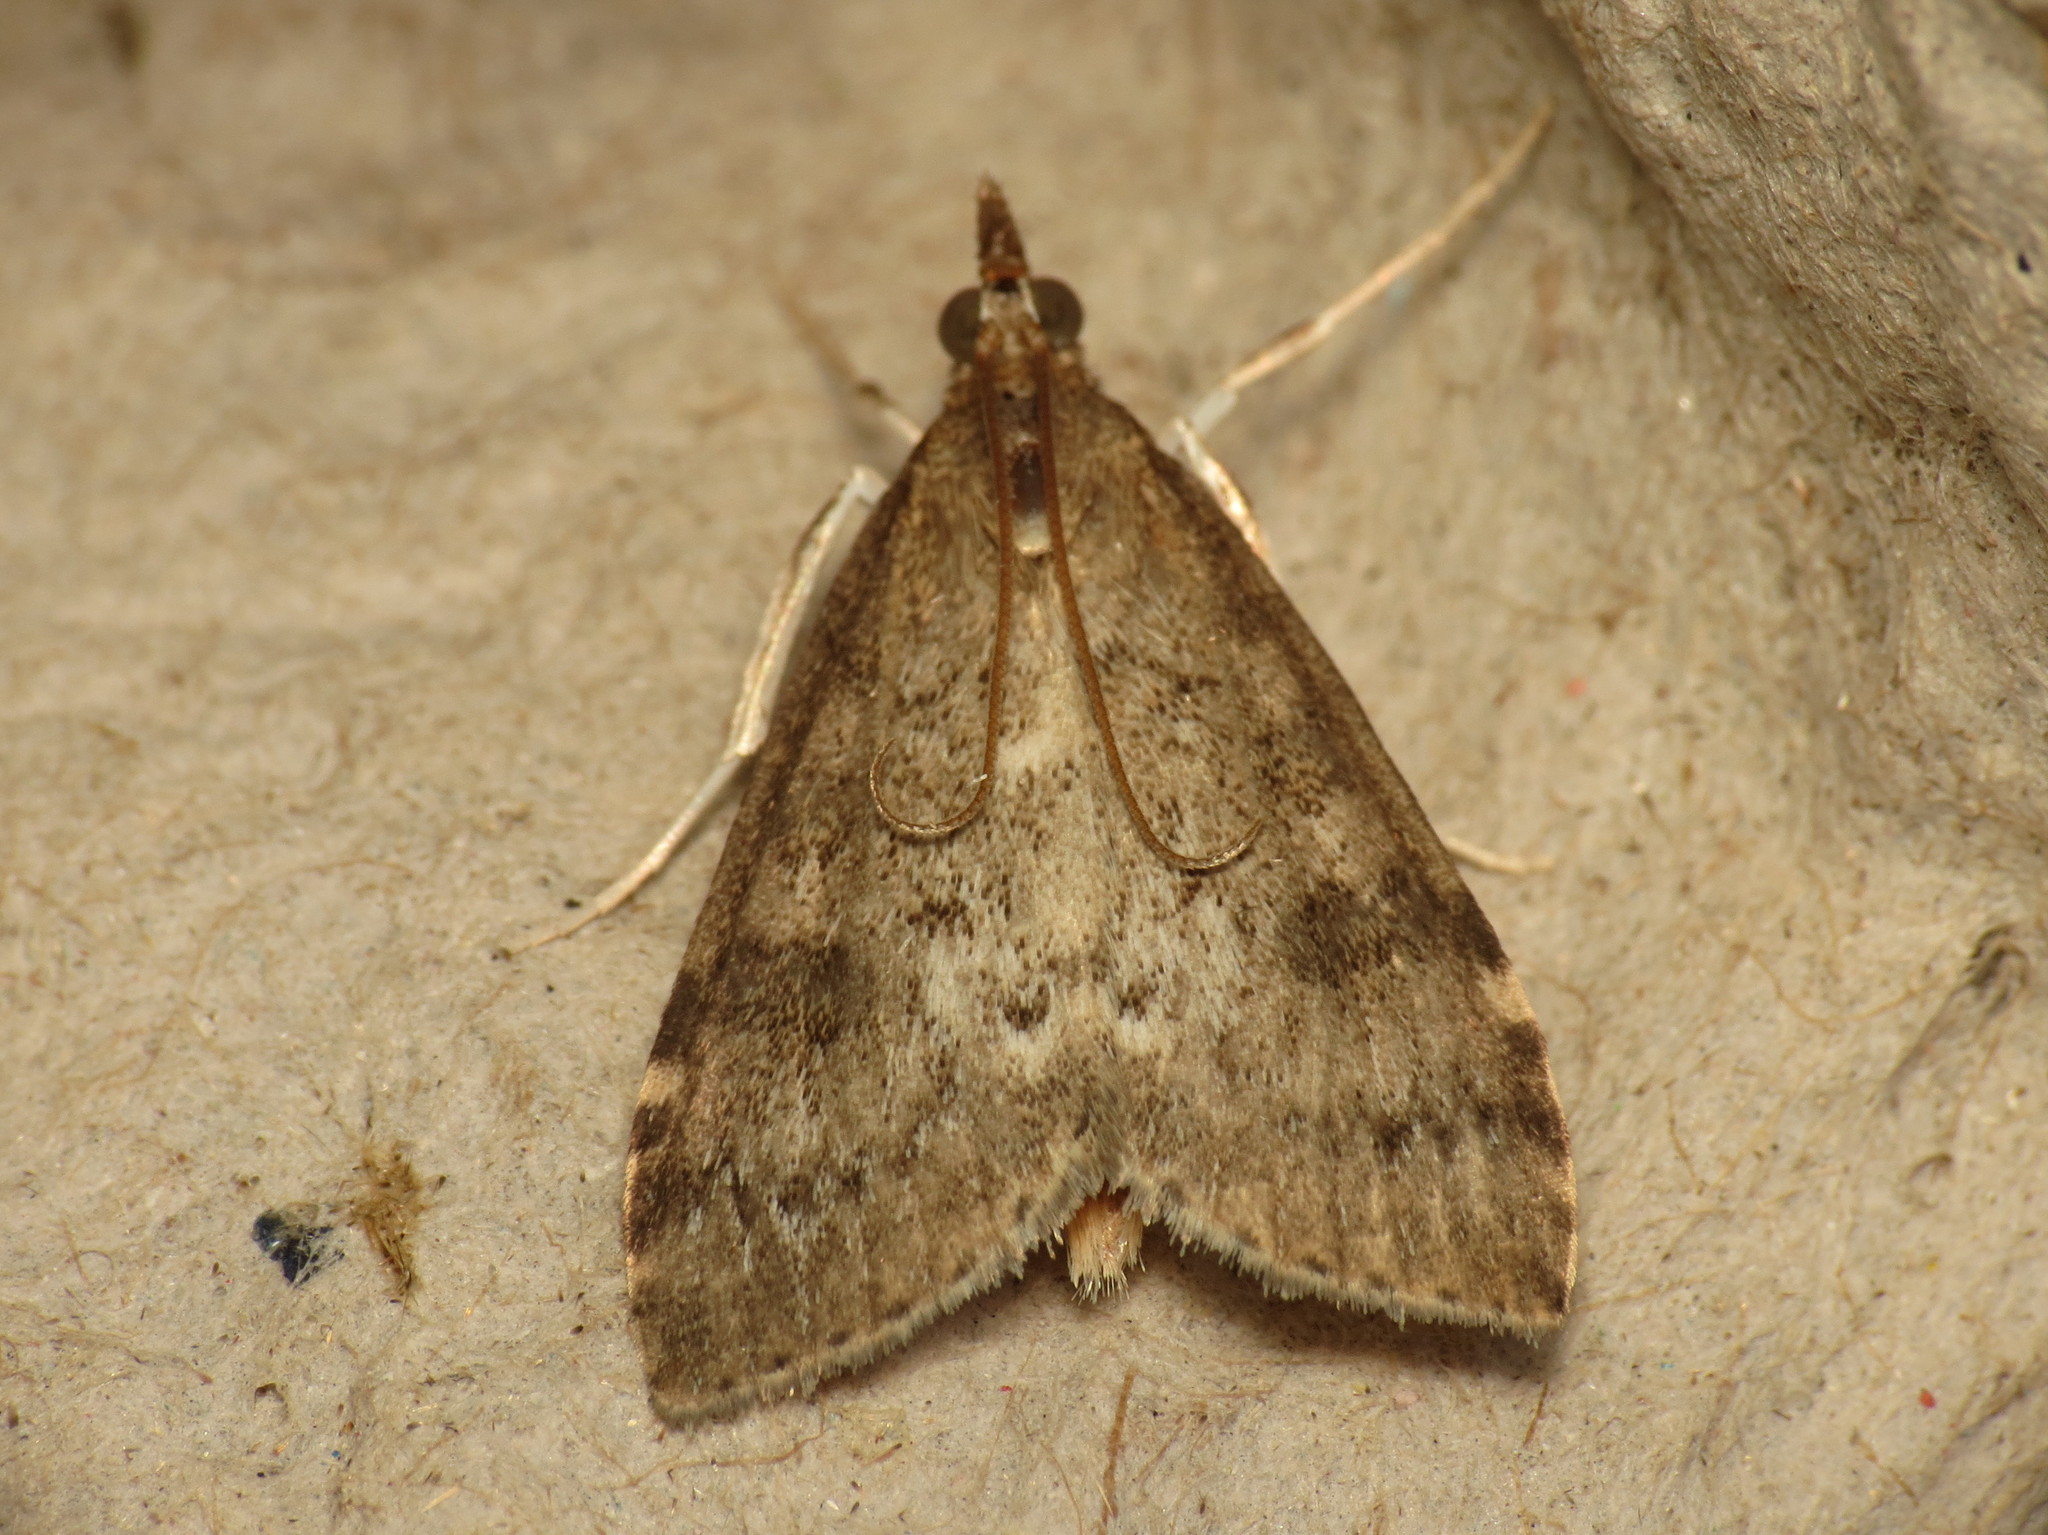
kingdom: Animalia
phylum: Arthropoda
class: Insecta
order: Lepidoptera
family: Crambidae
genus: Udea
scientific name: Udea prunalis
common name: Dusky pearl
